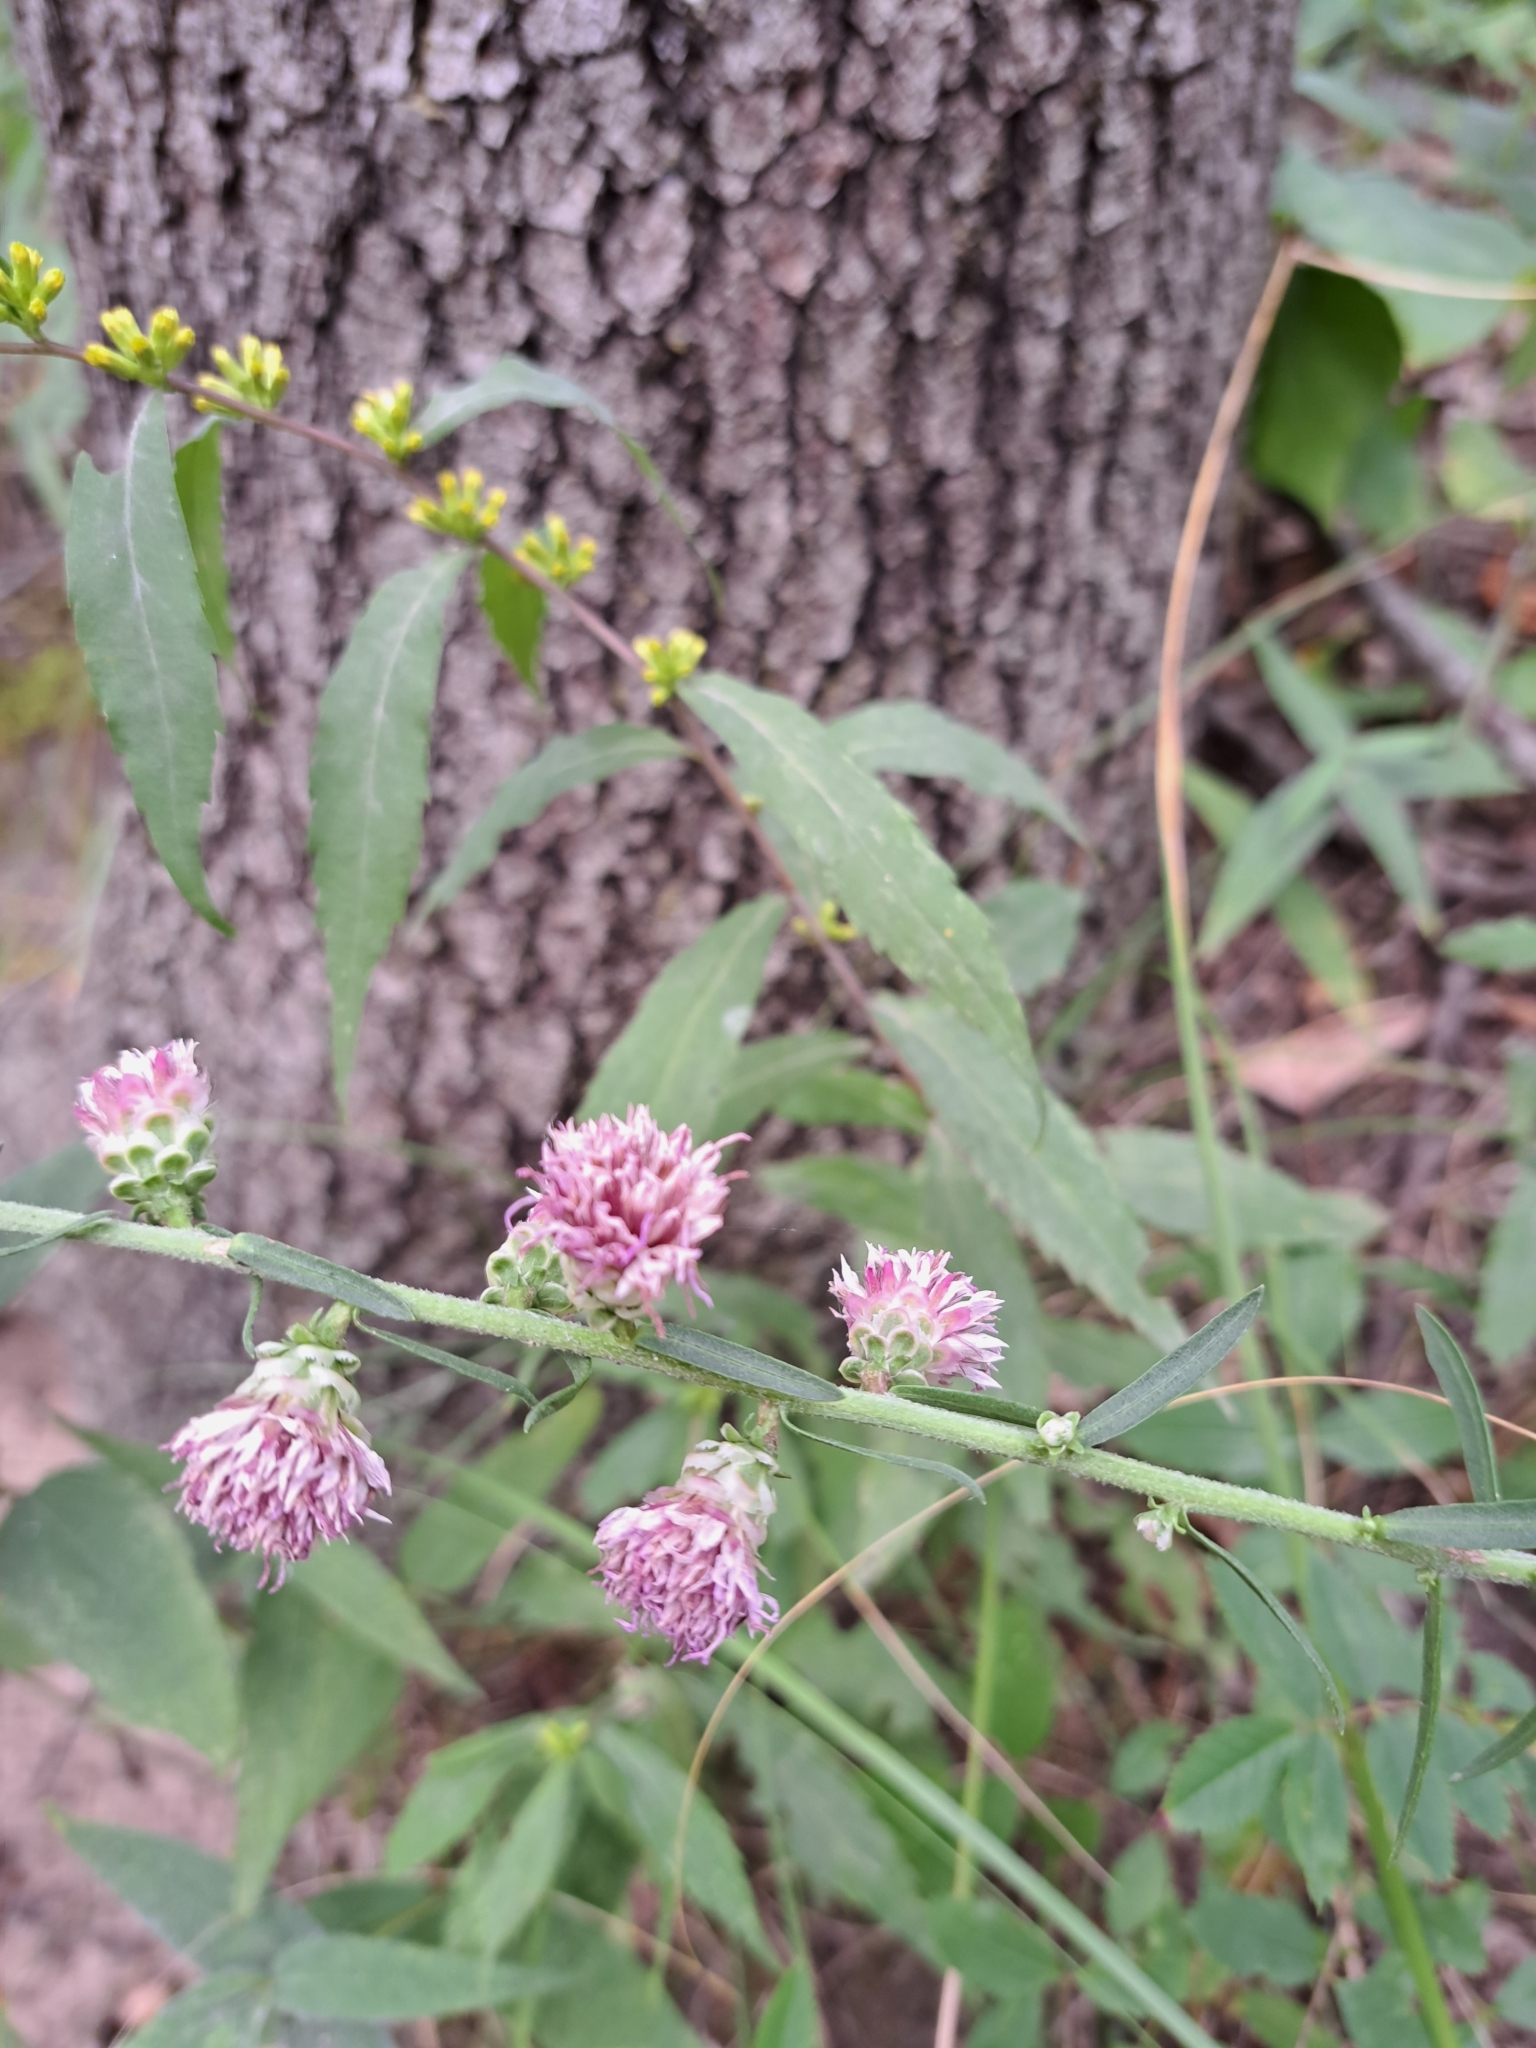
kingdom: Plantae
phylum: Tracheophyta
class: Magnoliopsida
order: Asterales
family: Asteraceae
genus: Liatris
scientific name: Liatris aspera
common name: Lacerate blazing-star
